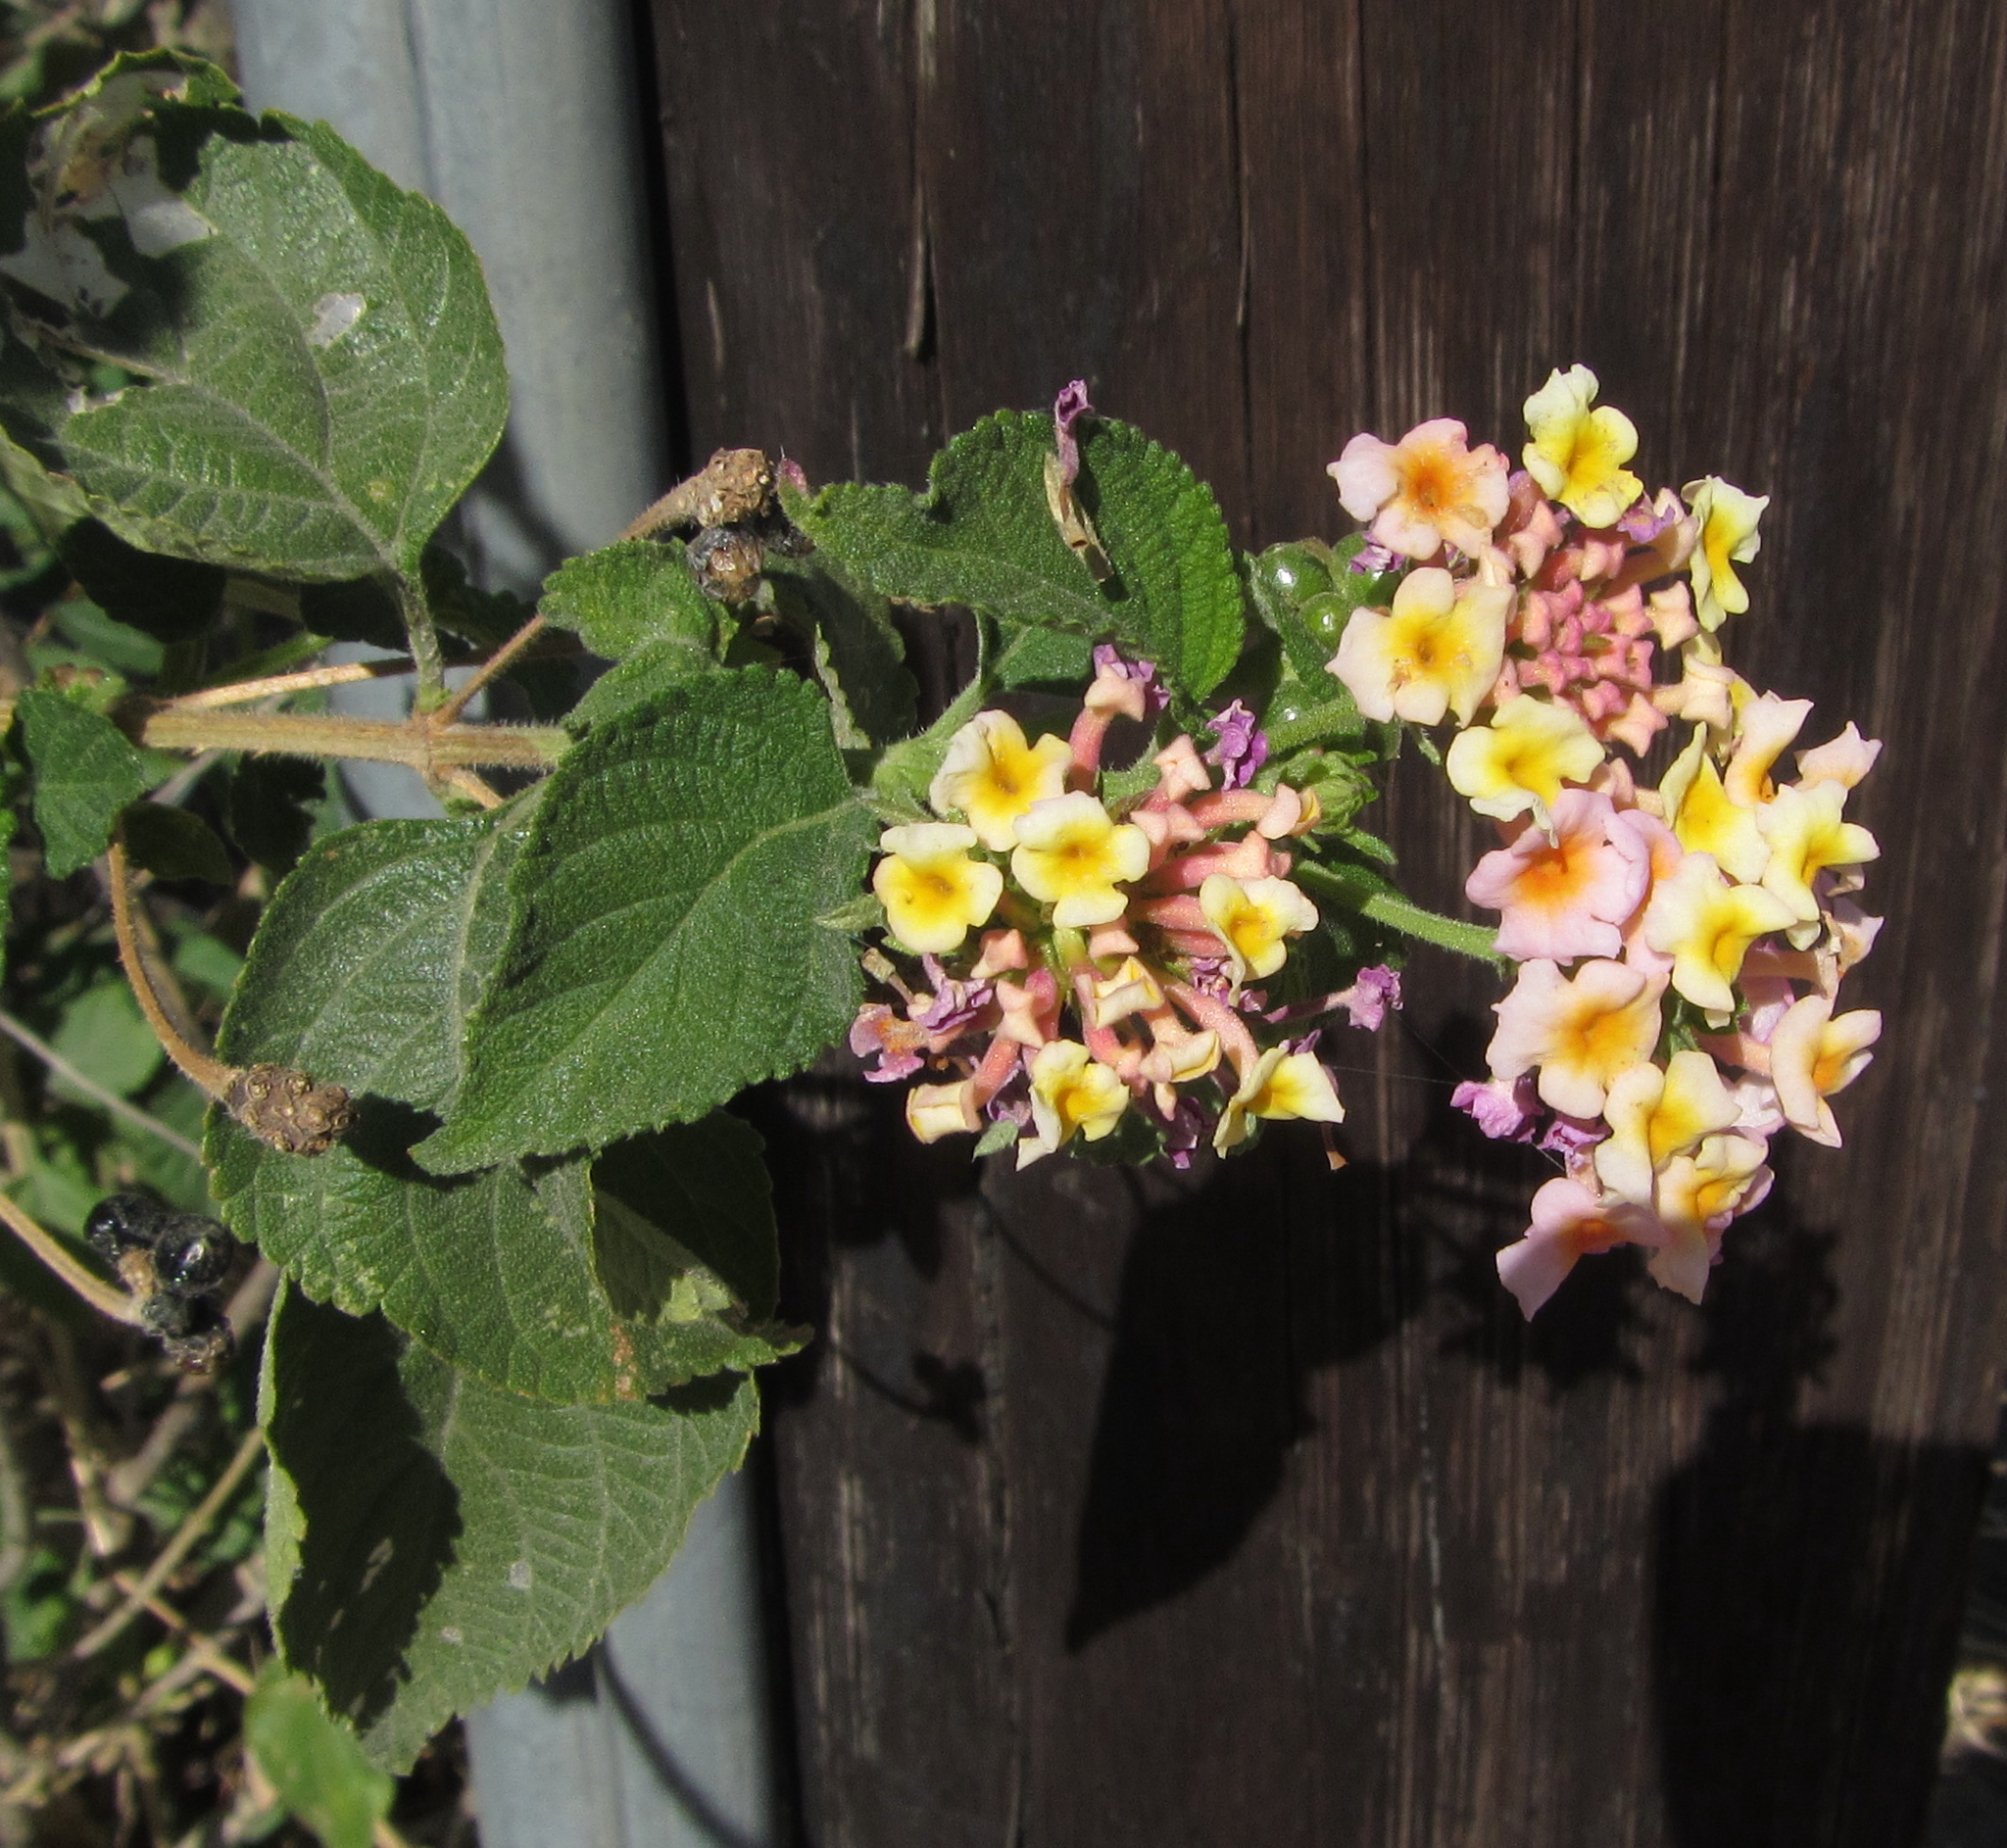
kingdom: Plantae
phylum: Tracheophyta
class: Magnoliopsida
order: Lamiales
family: Verbenaceae
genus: Lantana
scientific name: Lantana camara
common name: Lantana
